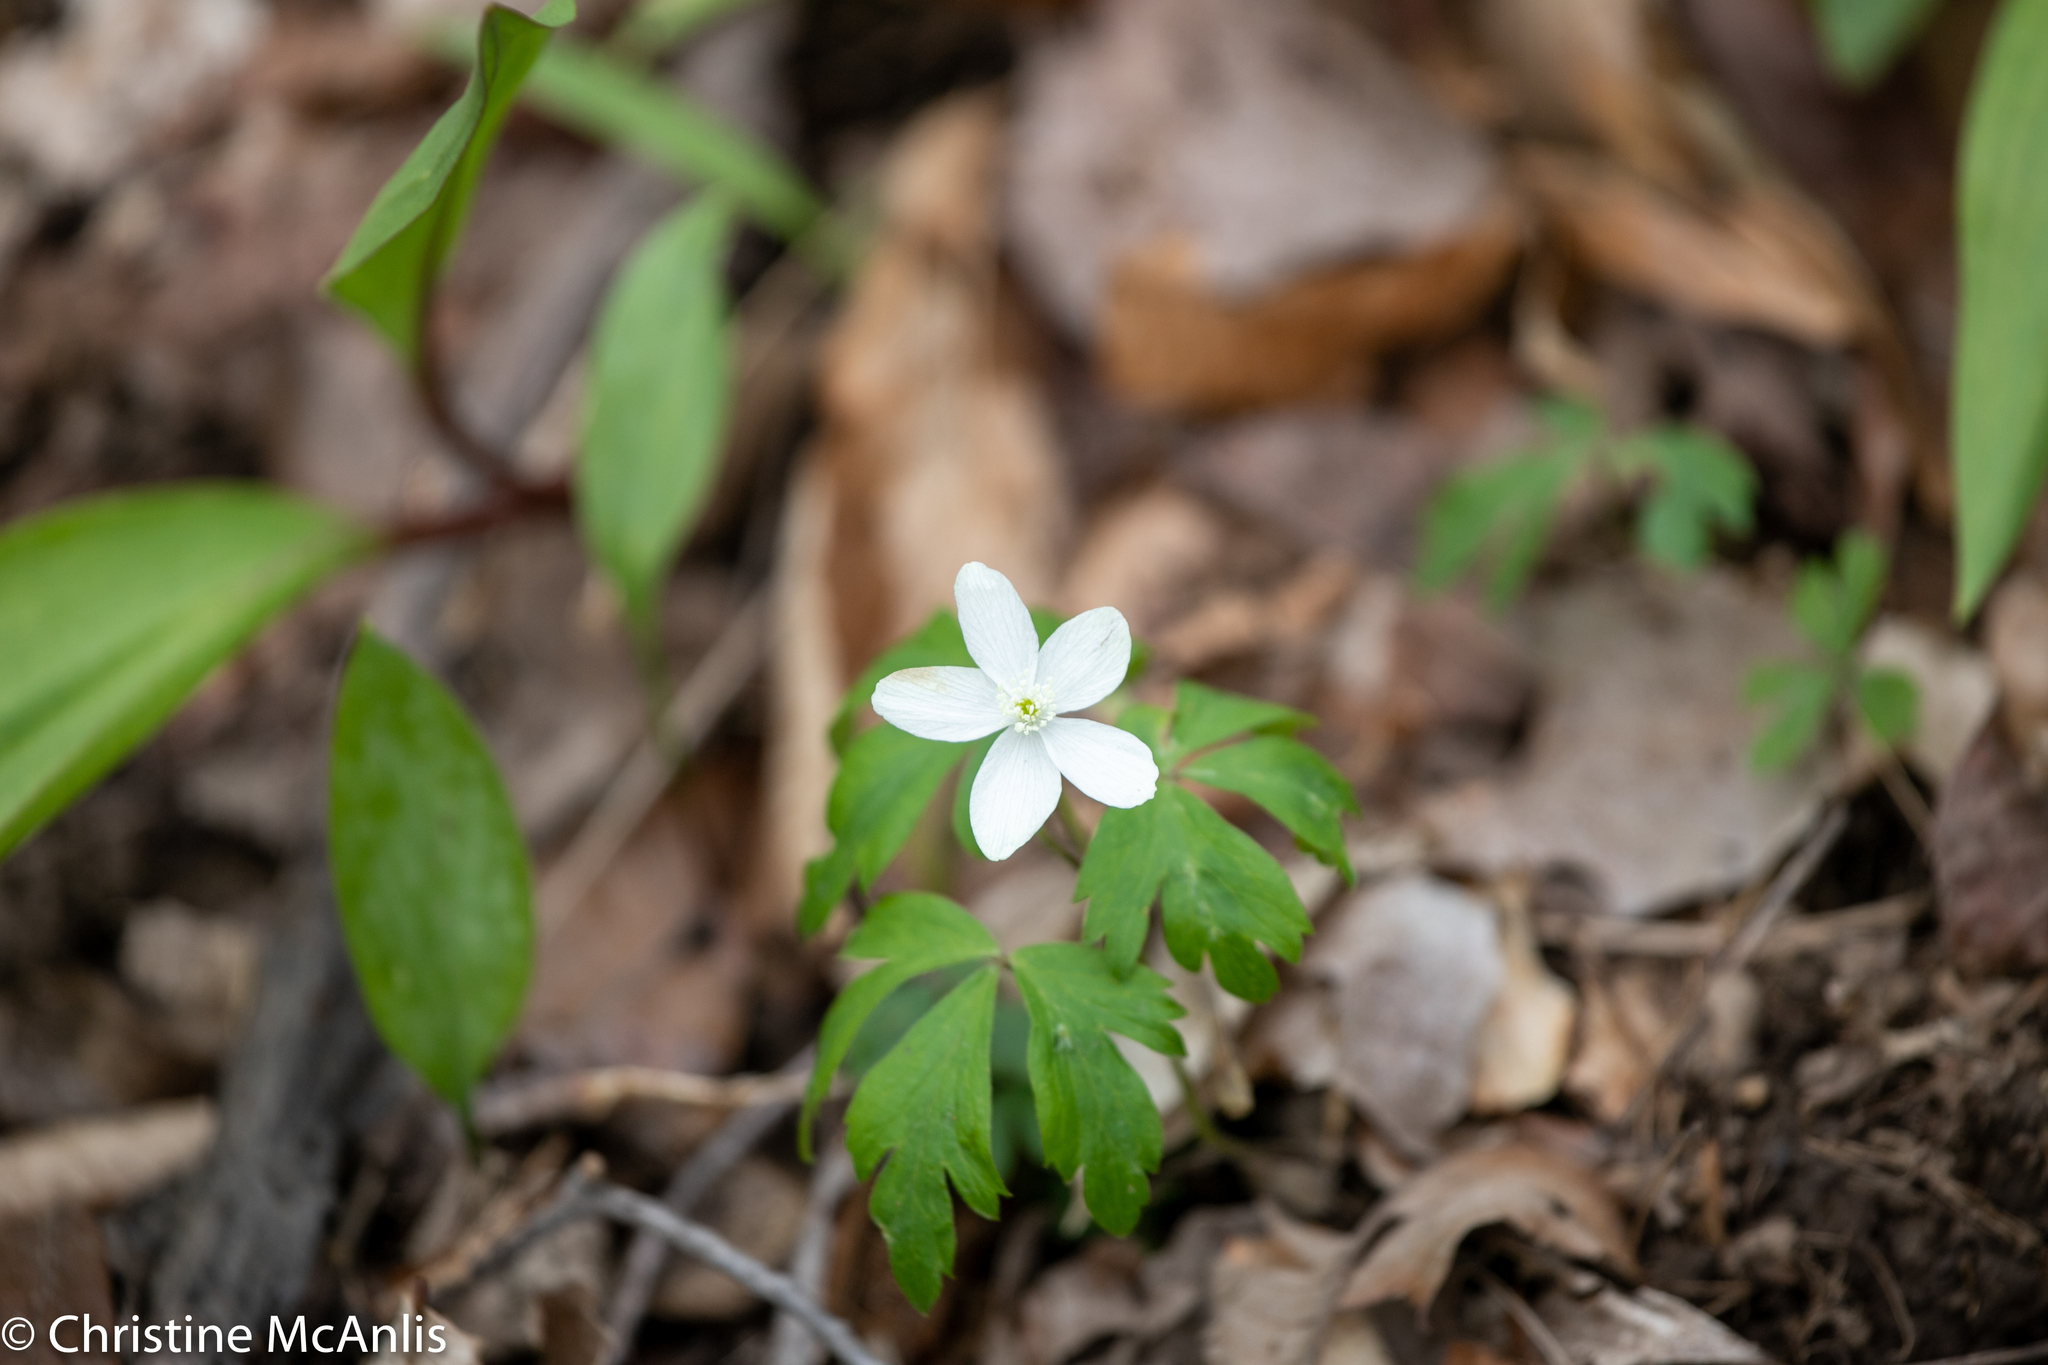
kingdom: Plantae
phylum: Tracheophyta
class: Magnoliopsida
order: Ranunculales
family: Ranunculaceae
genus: Anemone
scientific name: Anemone quinquefolia
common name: Wood anemone
